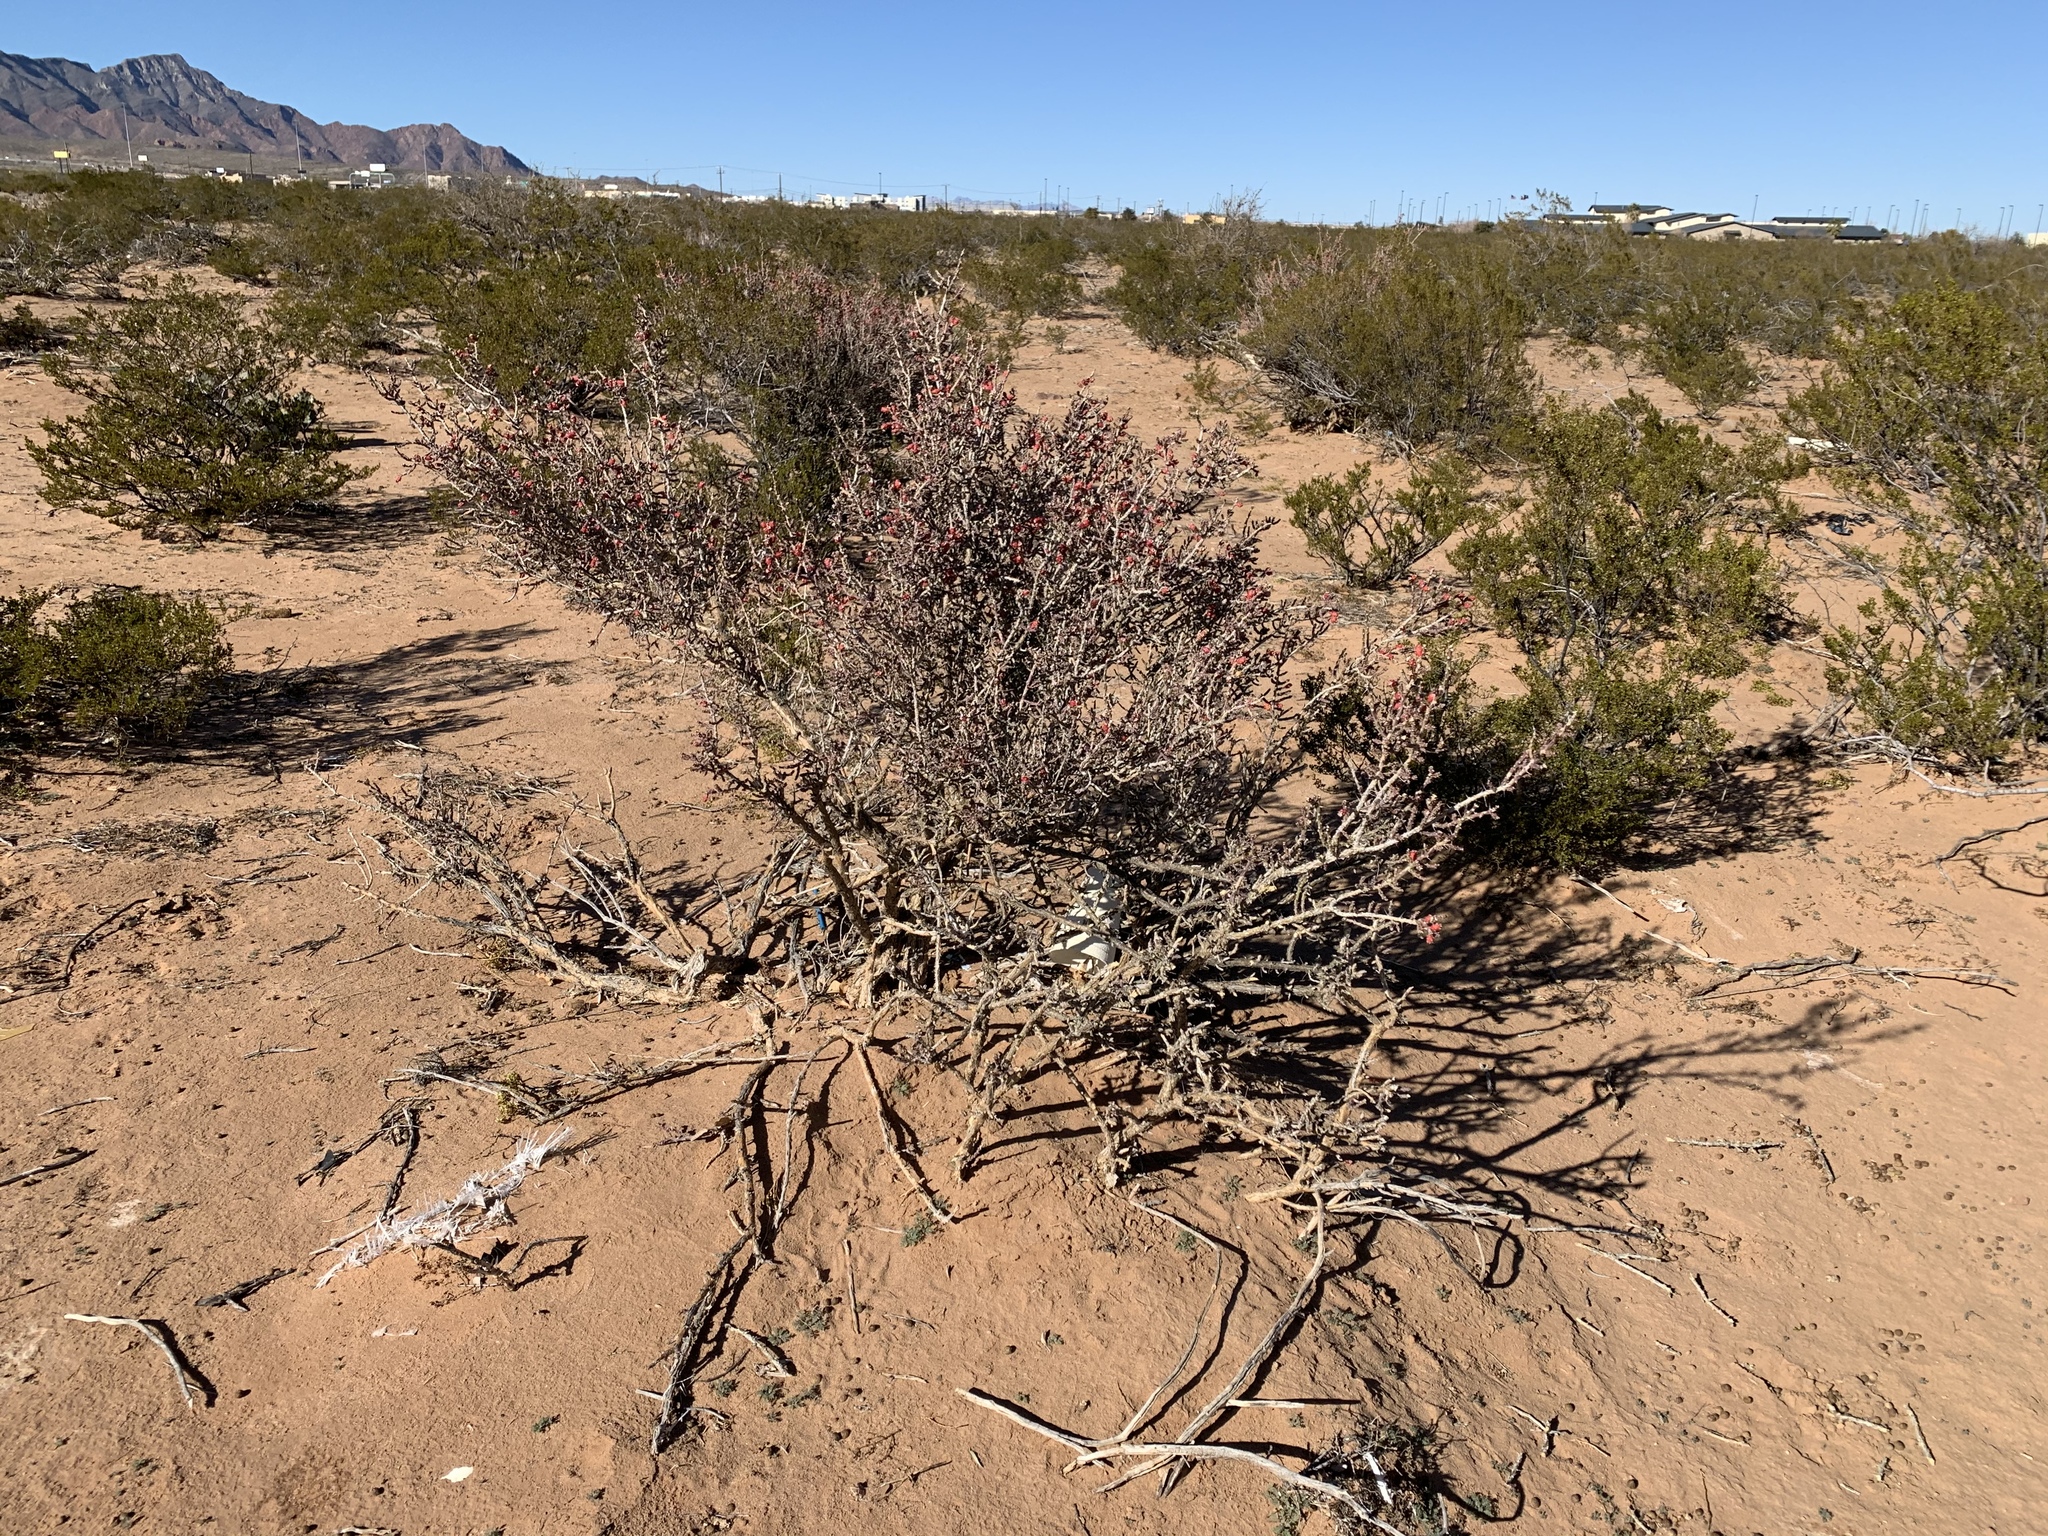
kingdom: Plantae
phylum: Tracheophyta
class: Magnoliopsida
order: Caryophyllales
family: Cactaceae
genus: Cylindropuntia
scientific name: Cylindropuntia leptocaulis
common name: Christmas cactus
